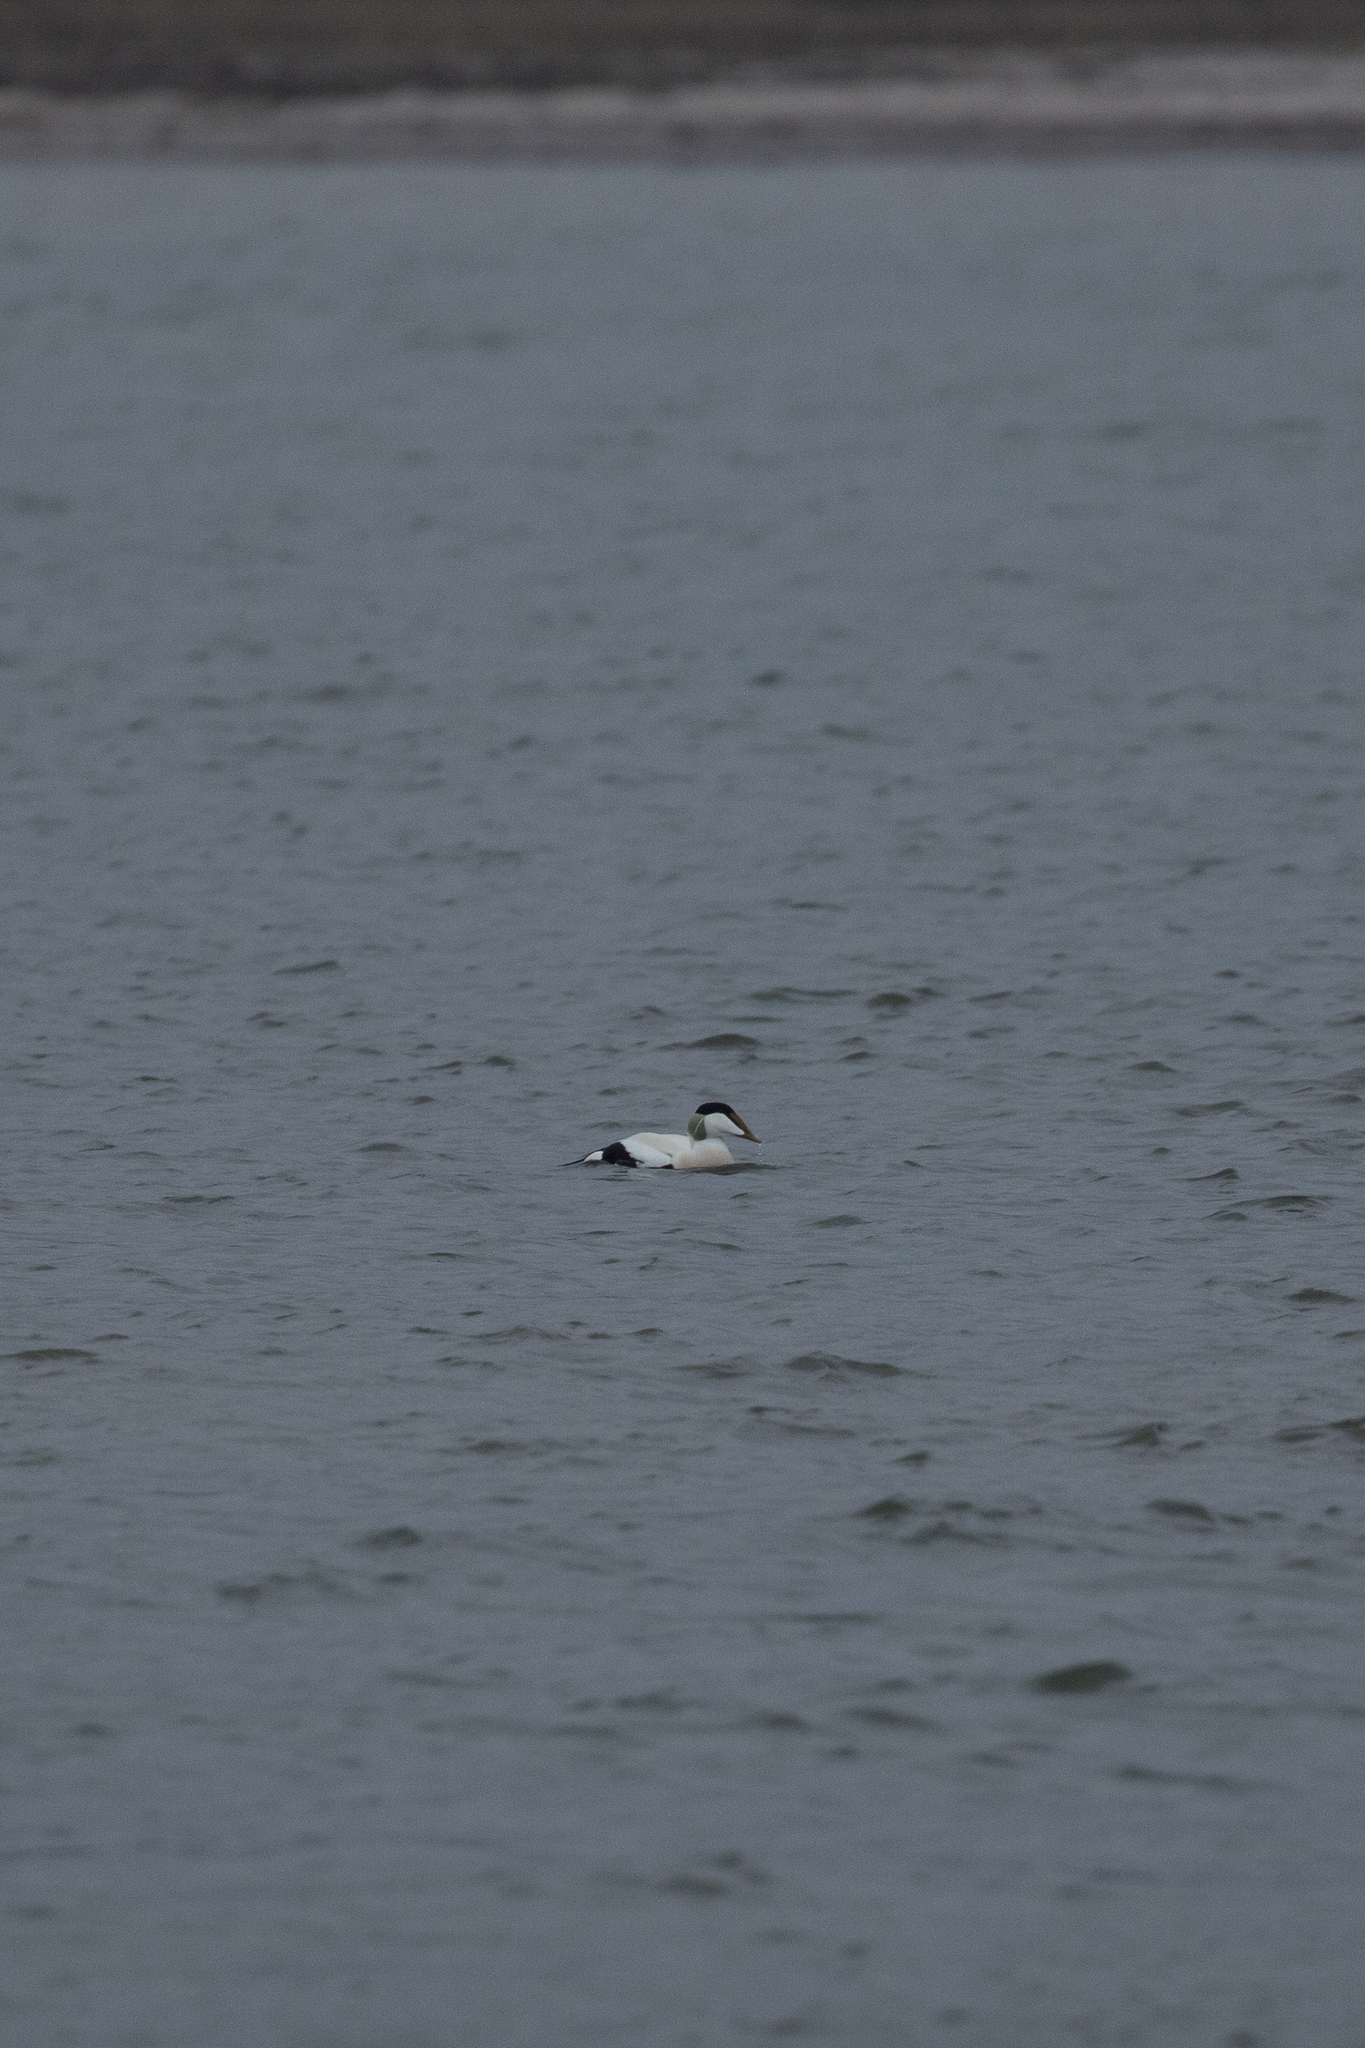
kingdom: Animalia
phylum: Chordata
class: Aves
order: Anseriformes
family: Anatidae
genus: Somateria
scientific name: Somateria mollissima
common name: Common eider
